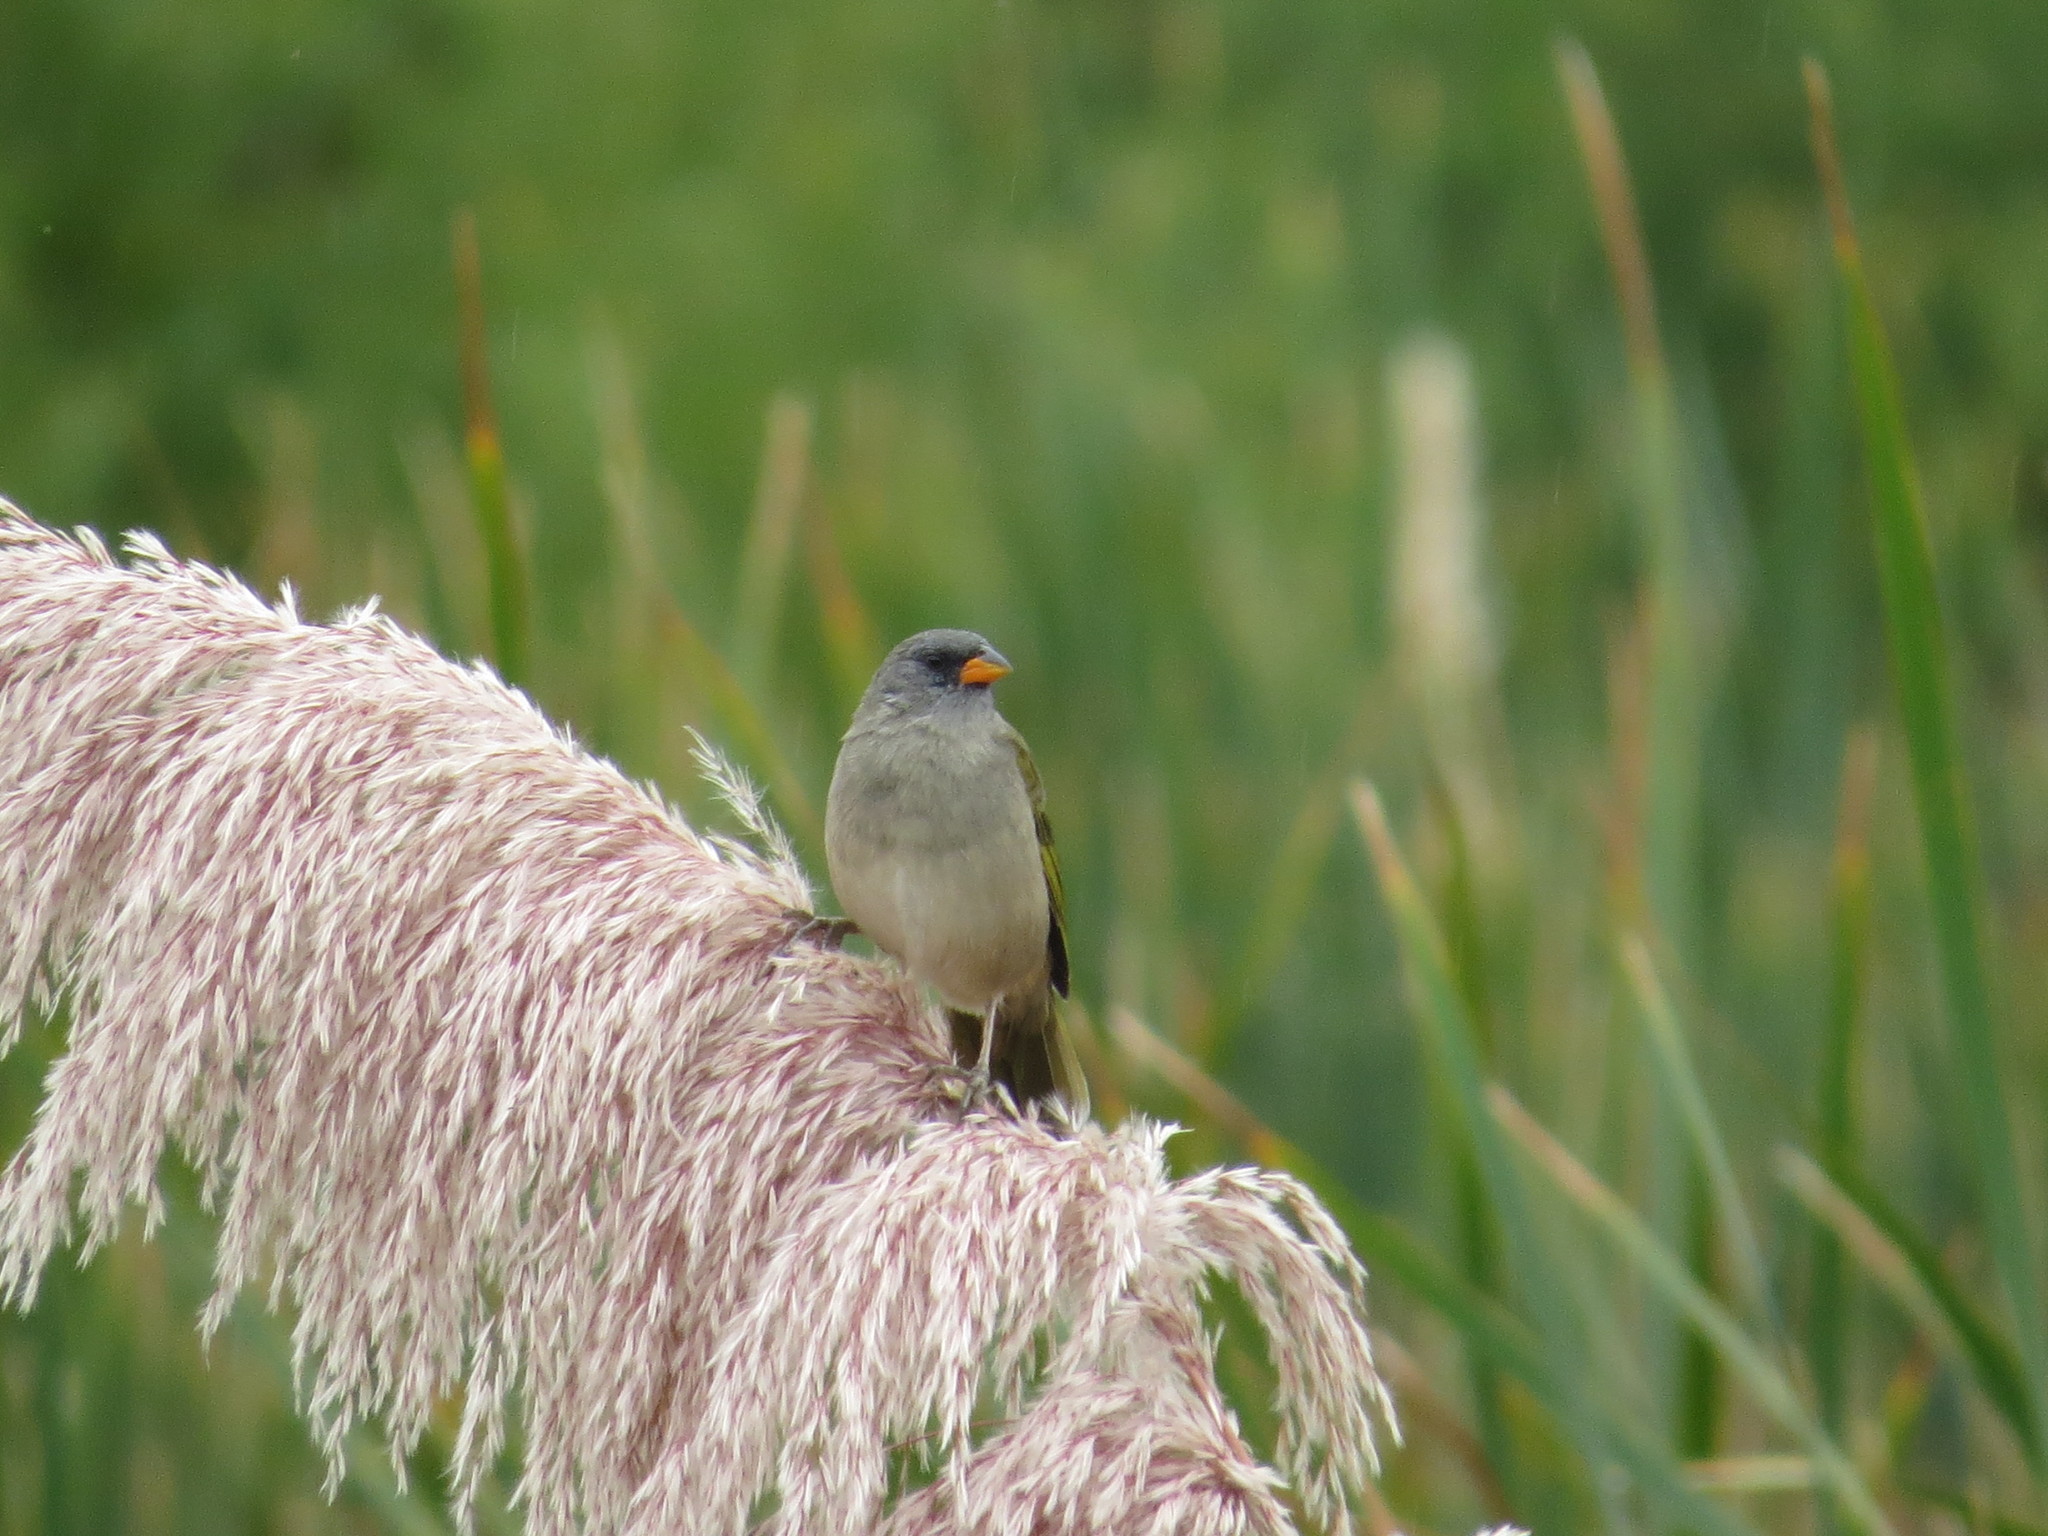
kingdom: Animalia
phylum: Chordata
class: Aves
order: Passeriformes
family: Thraupidae
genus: Embernagra
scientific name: Embernagra platensis
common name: Pampa finch
